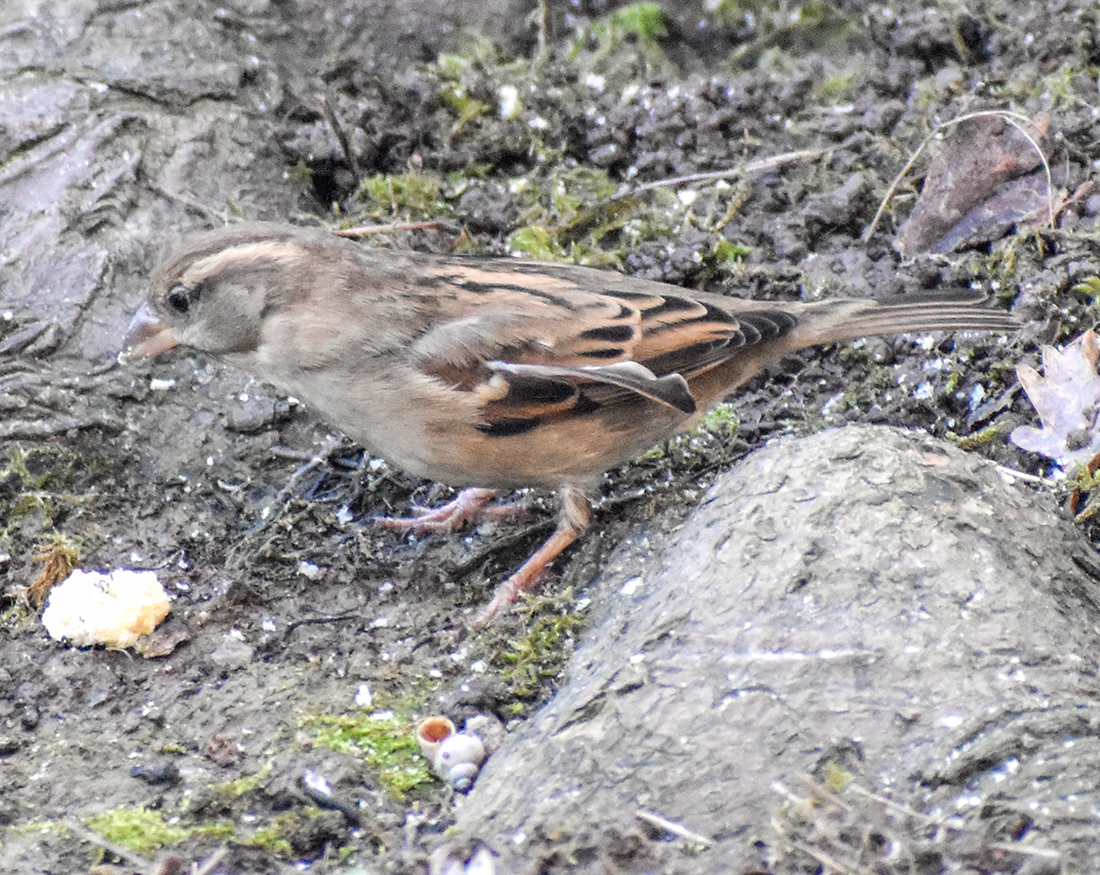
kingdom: Animalia
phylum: Chordata
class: Aves
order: Passeriformes
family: Passeridae
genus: Passer
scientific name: Passer italiae
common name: Italian sparrow
